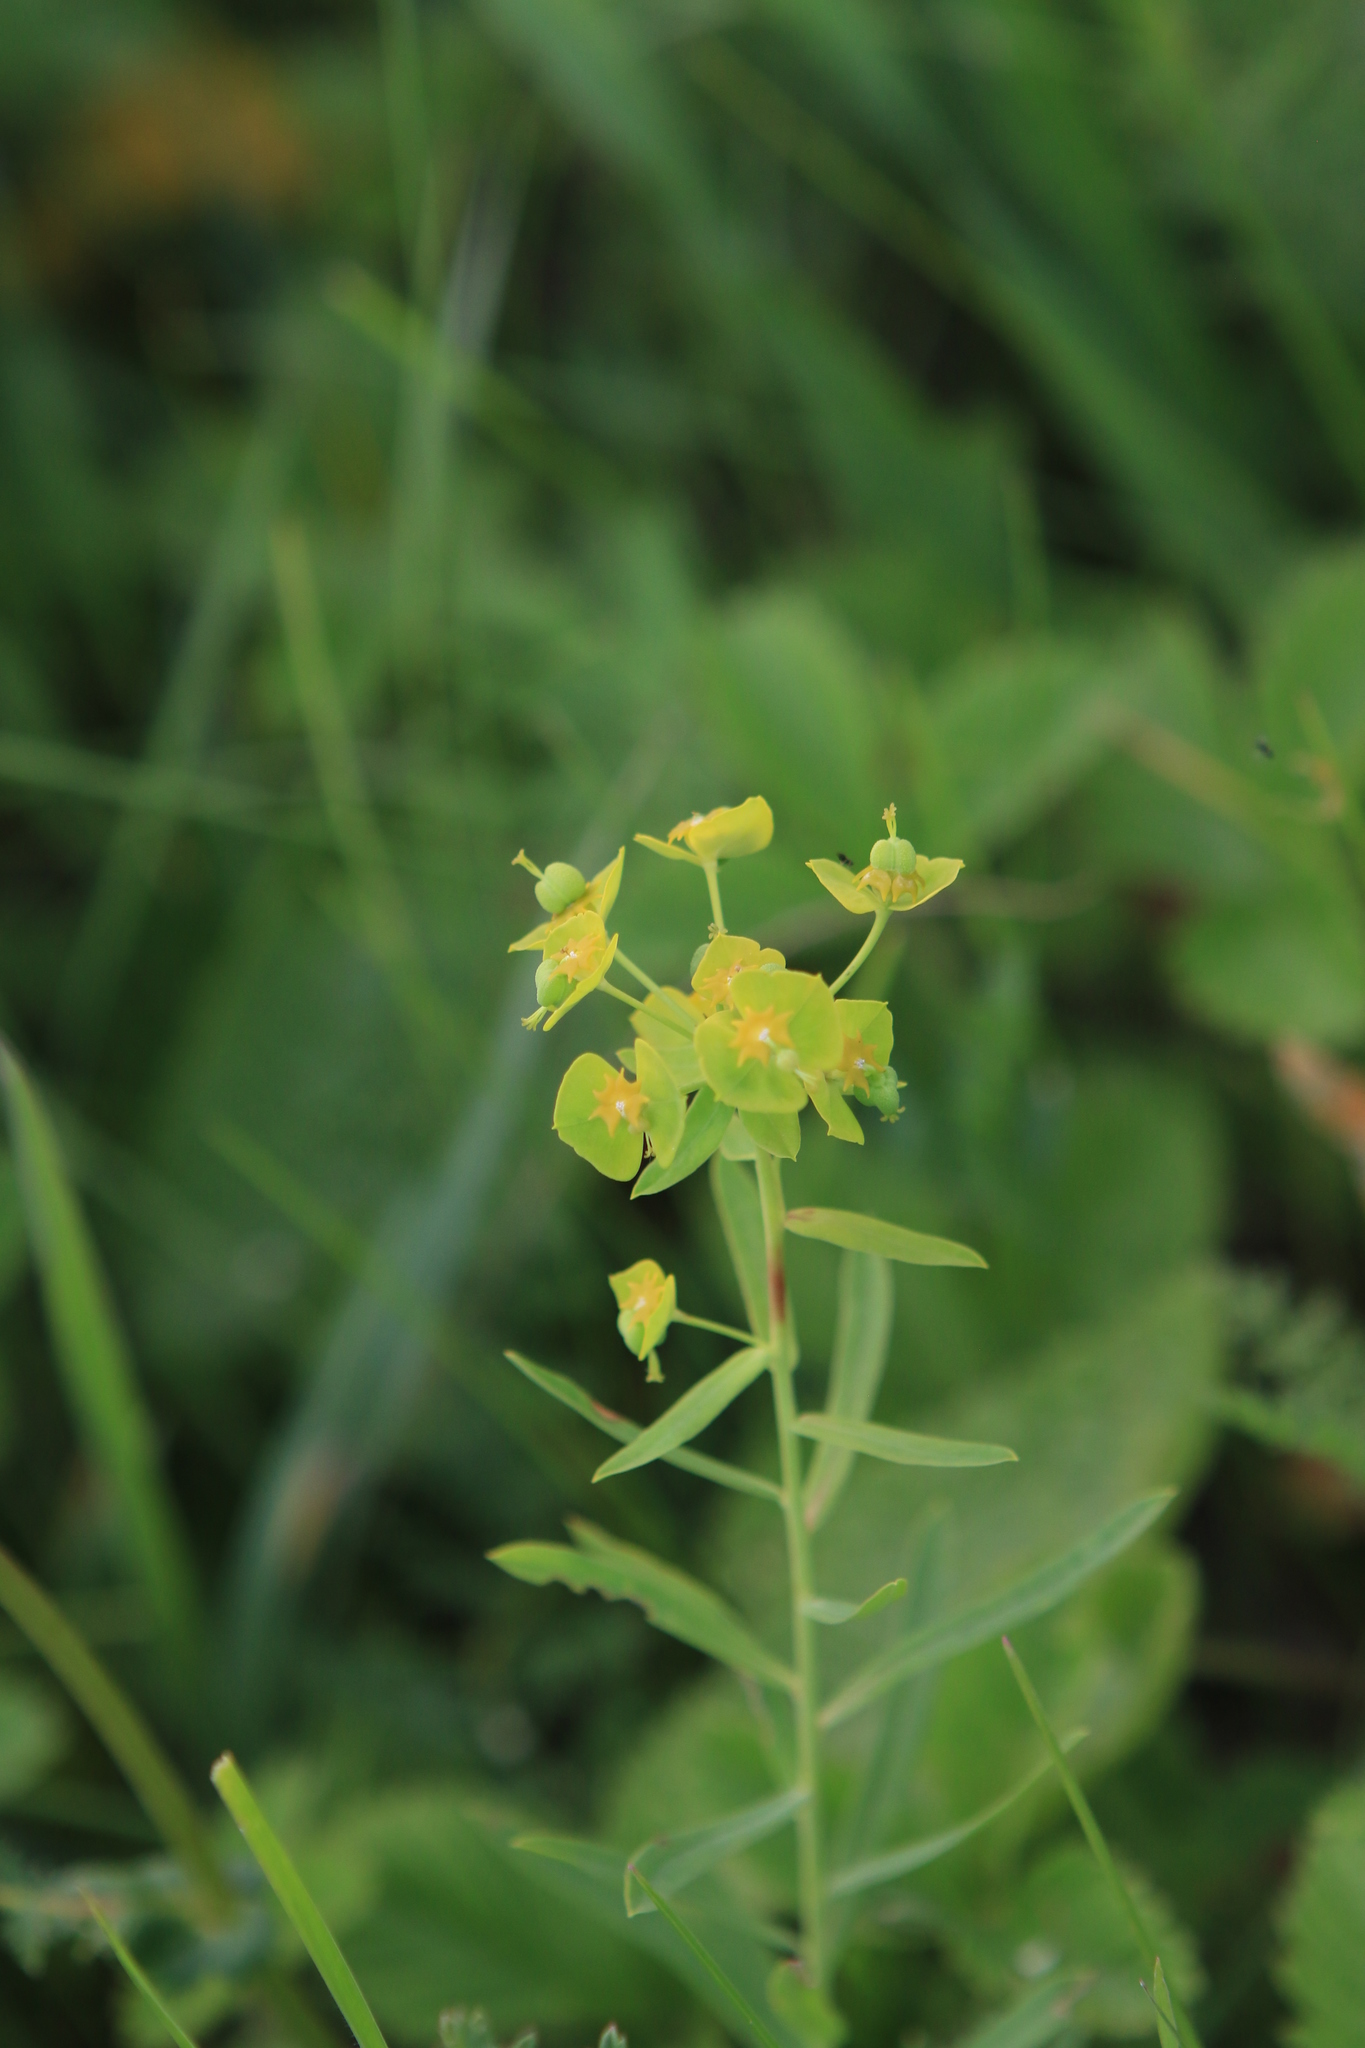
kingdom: Plantae
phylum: Tracheophyta
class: Magnoliopsida
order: Malpighiales
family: Euphorbiaceae
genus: Euphorbia
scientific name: Euphorbia virgata
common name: Leafy spurge
